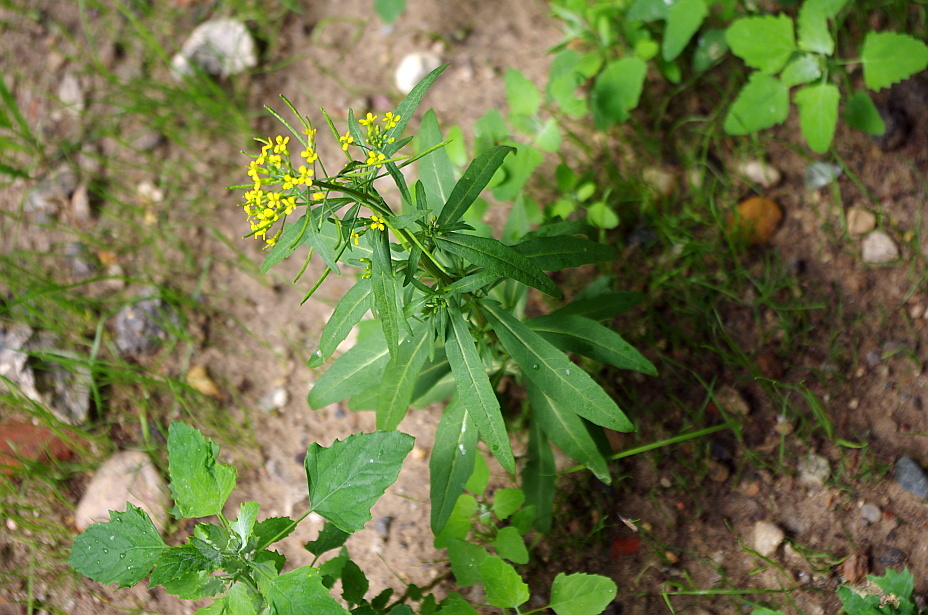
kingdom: Plantae
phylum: Tracheophyta
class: Magnoliopsida
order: Brassicales
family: Brassicaceae
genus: Erysimum
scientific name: Erysimum cheiranthoides
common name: Treacle mustard
